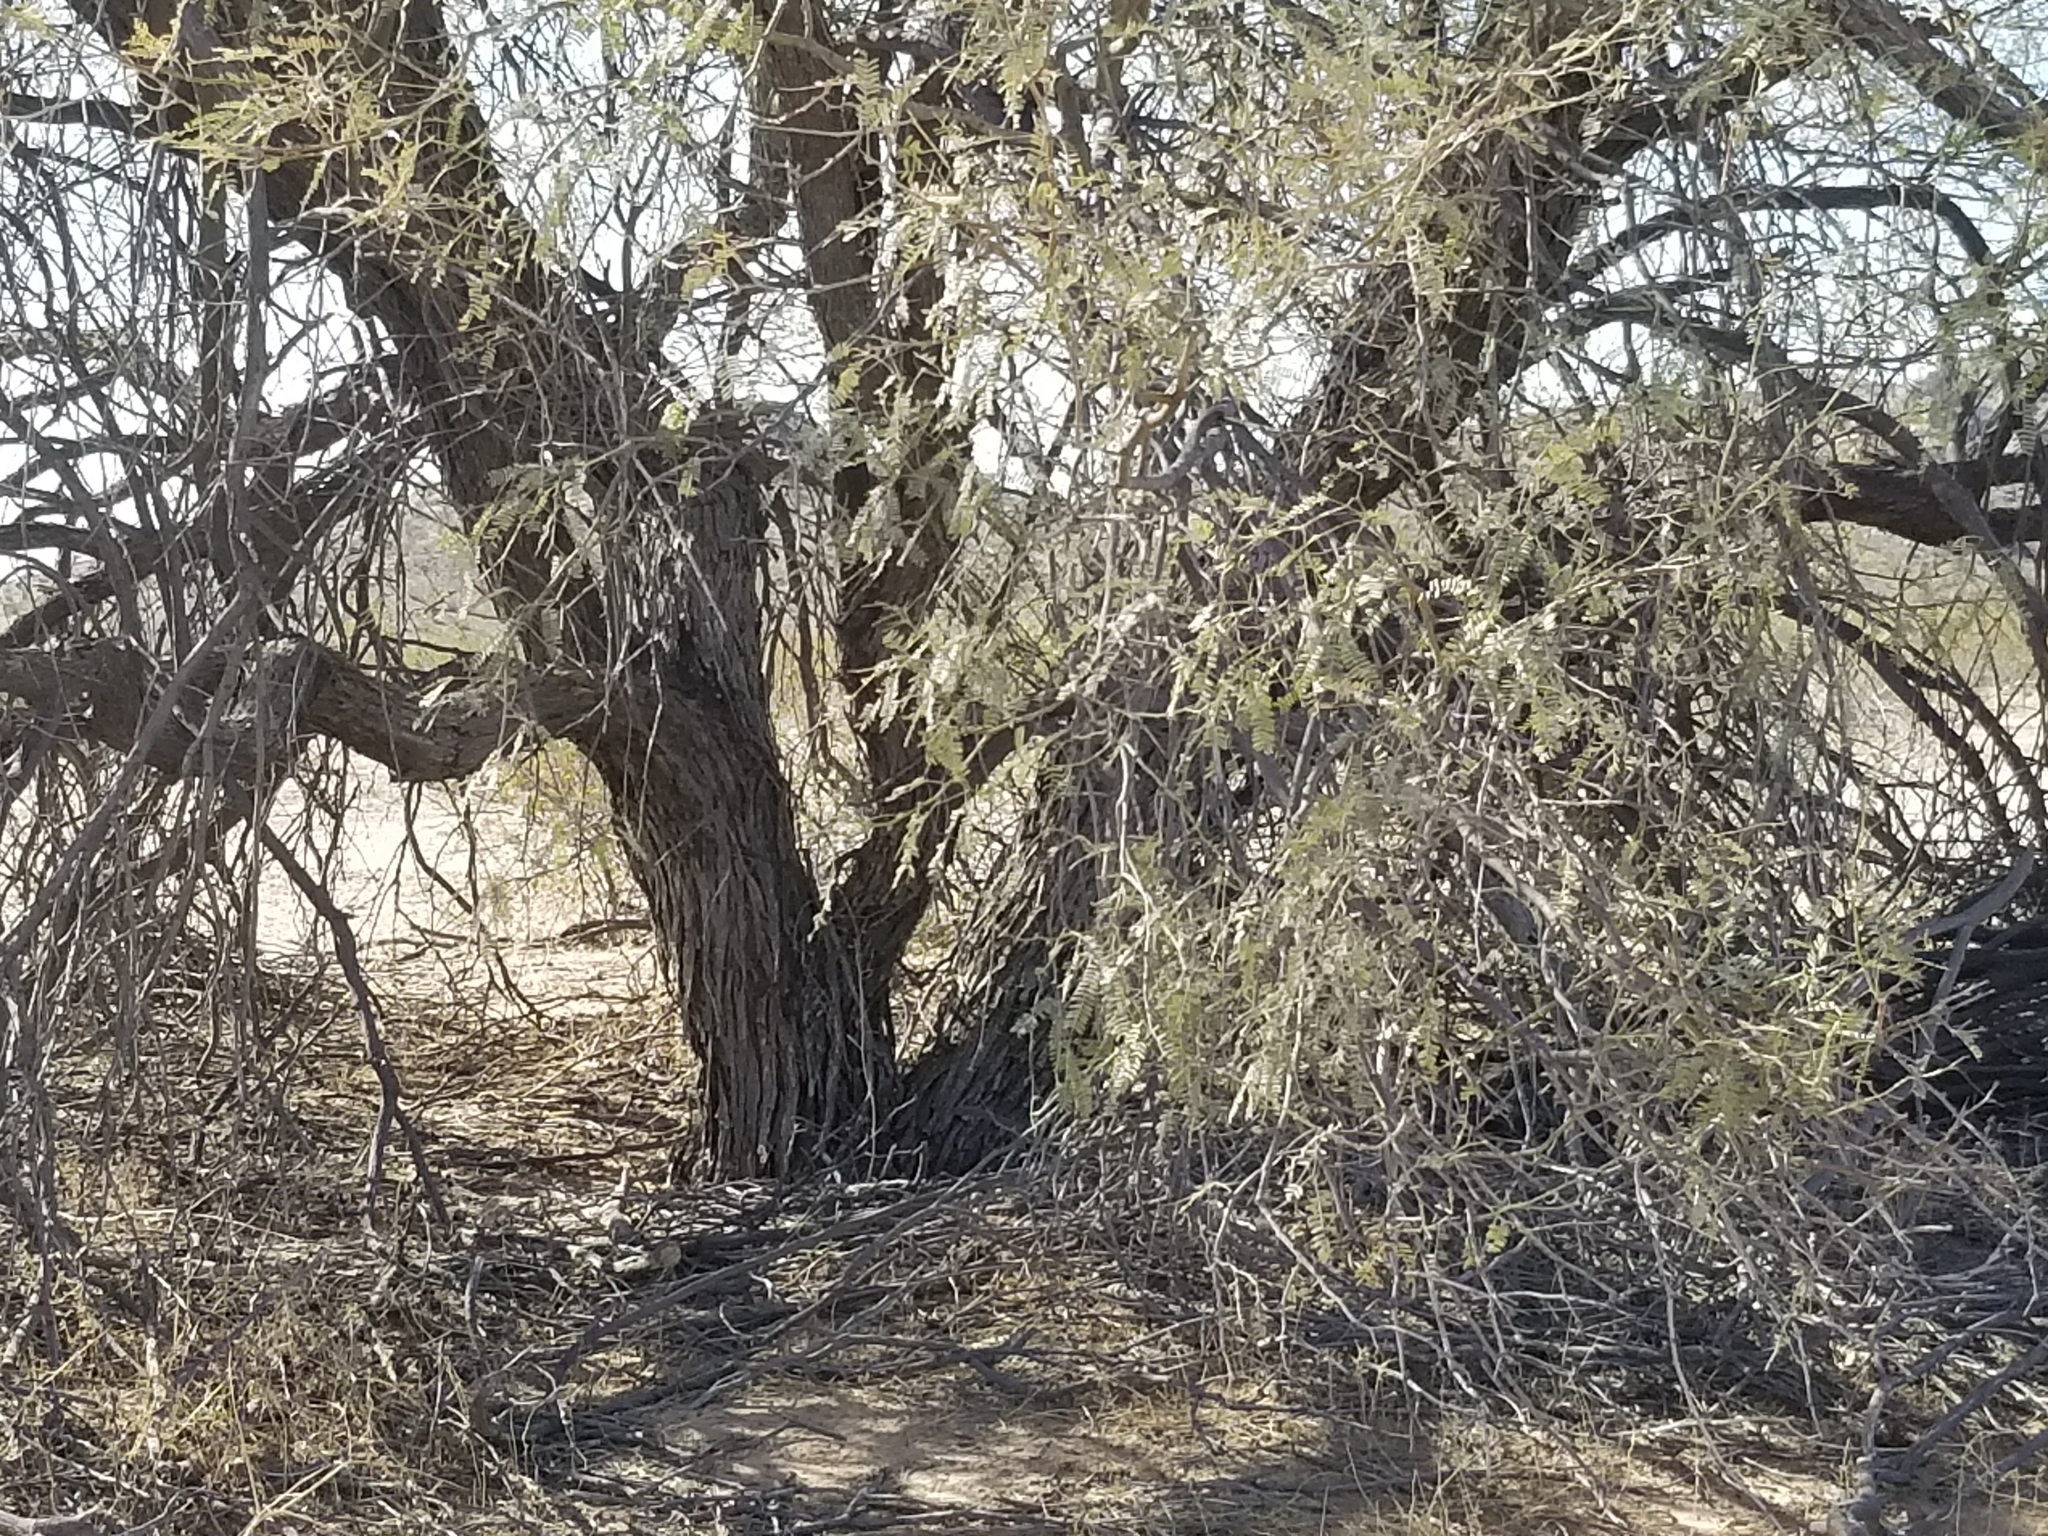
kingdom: Plantae
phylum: Tracheophyta
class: Magnoliopsida
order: Fabales
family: Fabaceae
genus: Prosopis
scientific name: Prosopis glandulosa
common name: Honey mesquite
